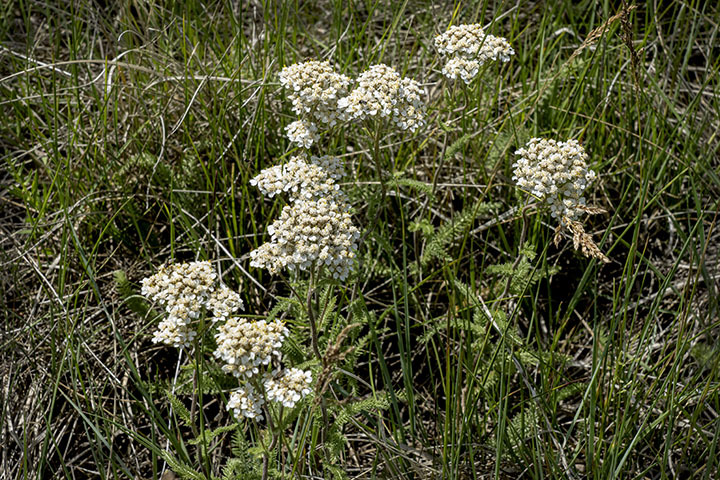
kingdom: Plantae
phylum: Tracheophyta
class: Magnoliopsida
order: Asterales
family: Asteraceae
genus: Achillea
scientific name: Achillea millefolium
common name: Yarrow
